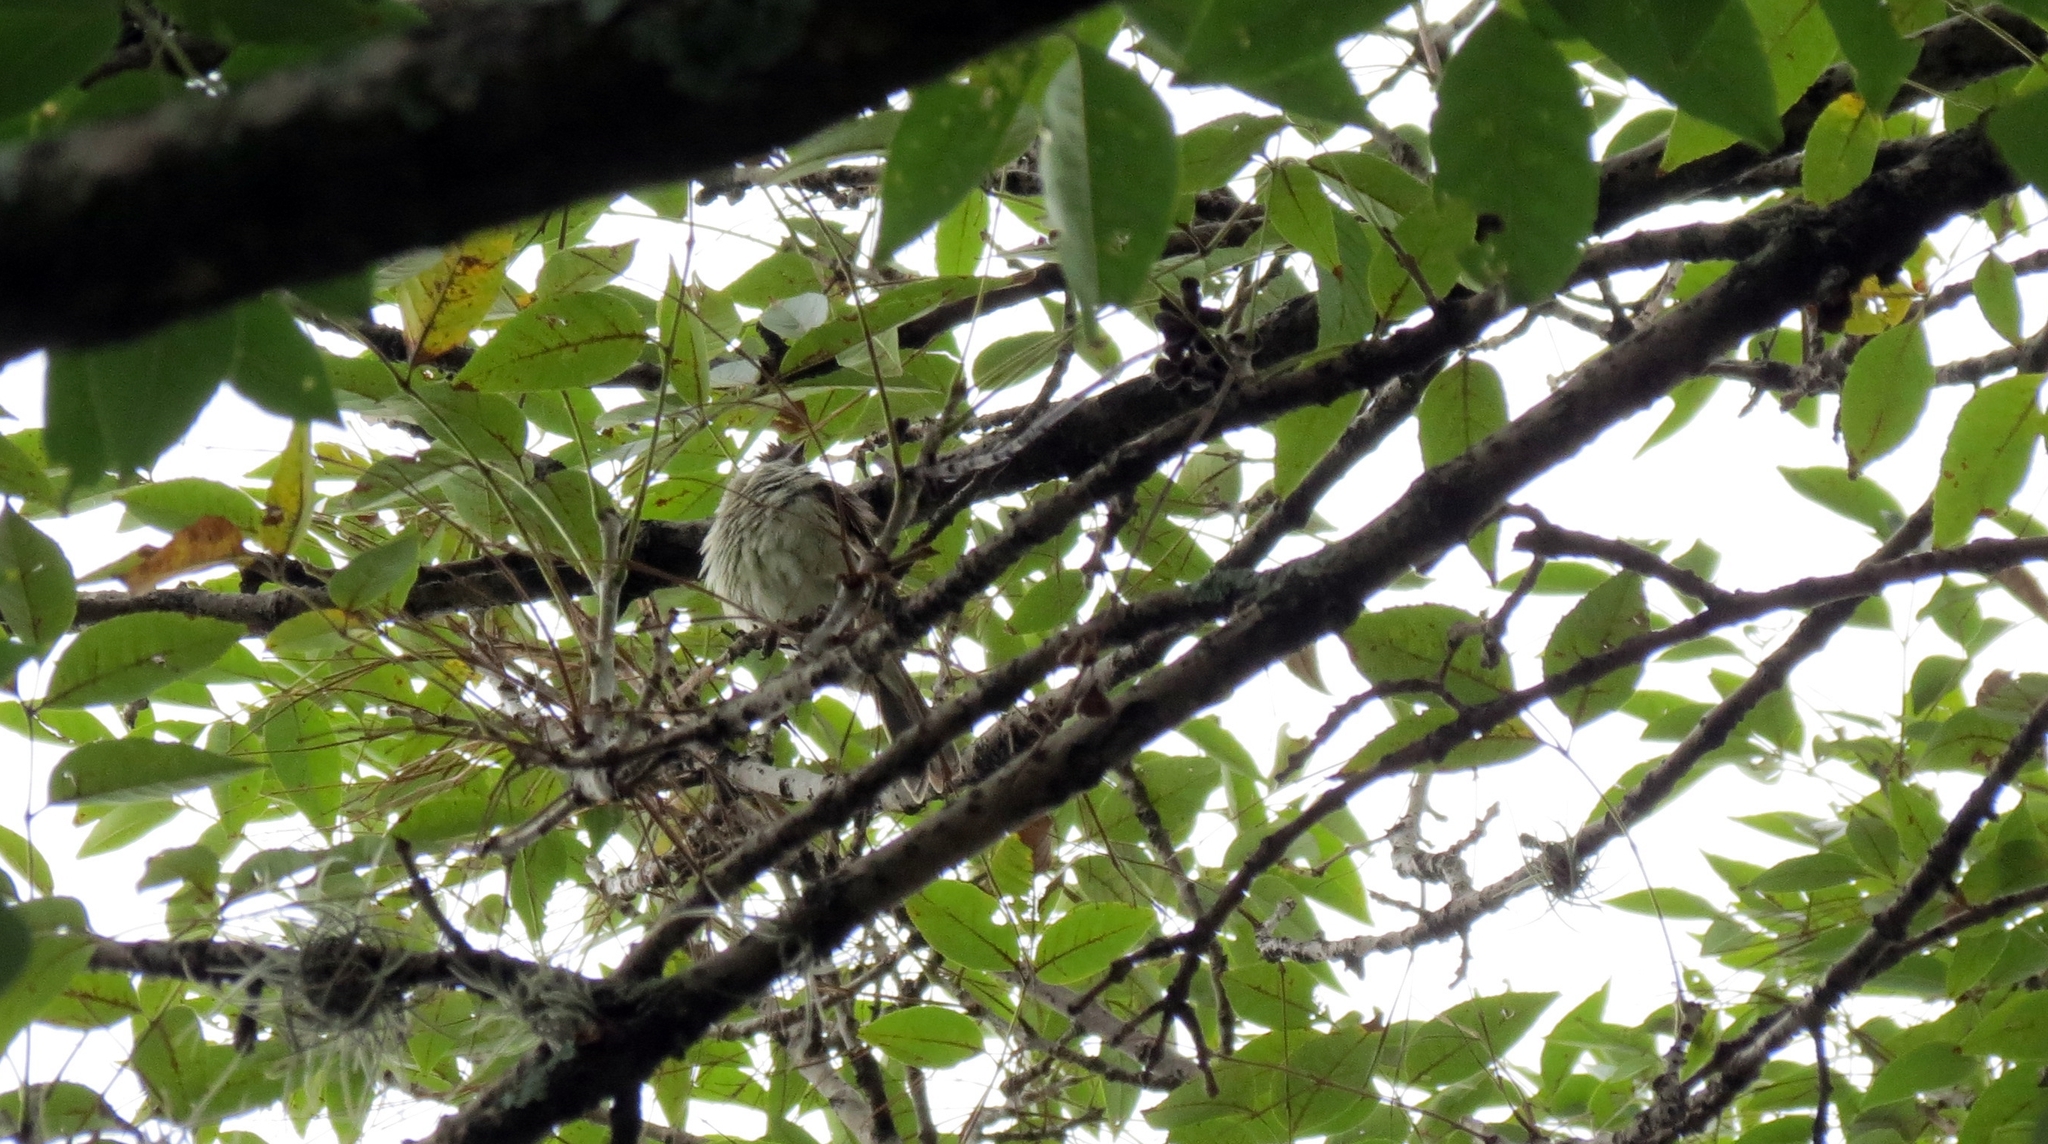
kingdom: Animalia
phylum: Chordata
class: Aves
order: Passeriformes
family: Tyrannidae
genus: Elaenia
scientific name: Elaenia flavogaster
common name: Yellow-bellied elaenia
